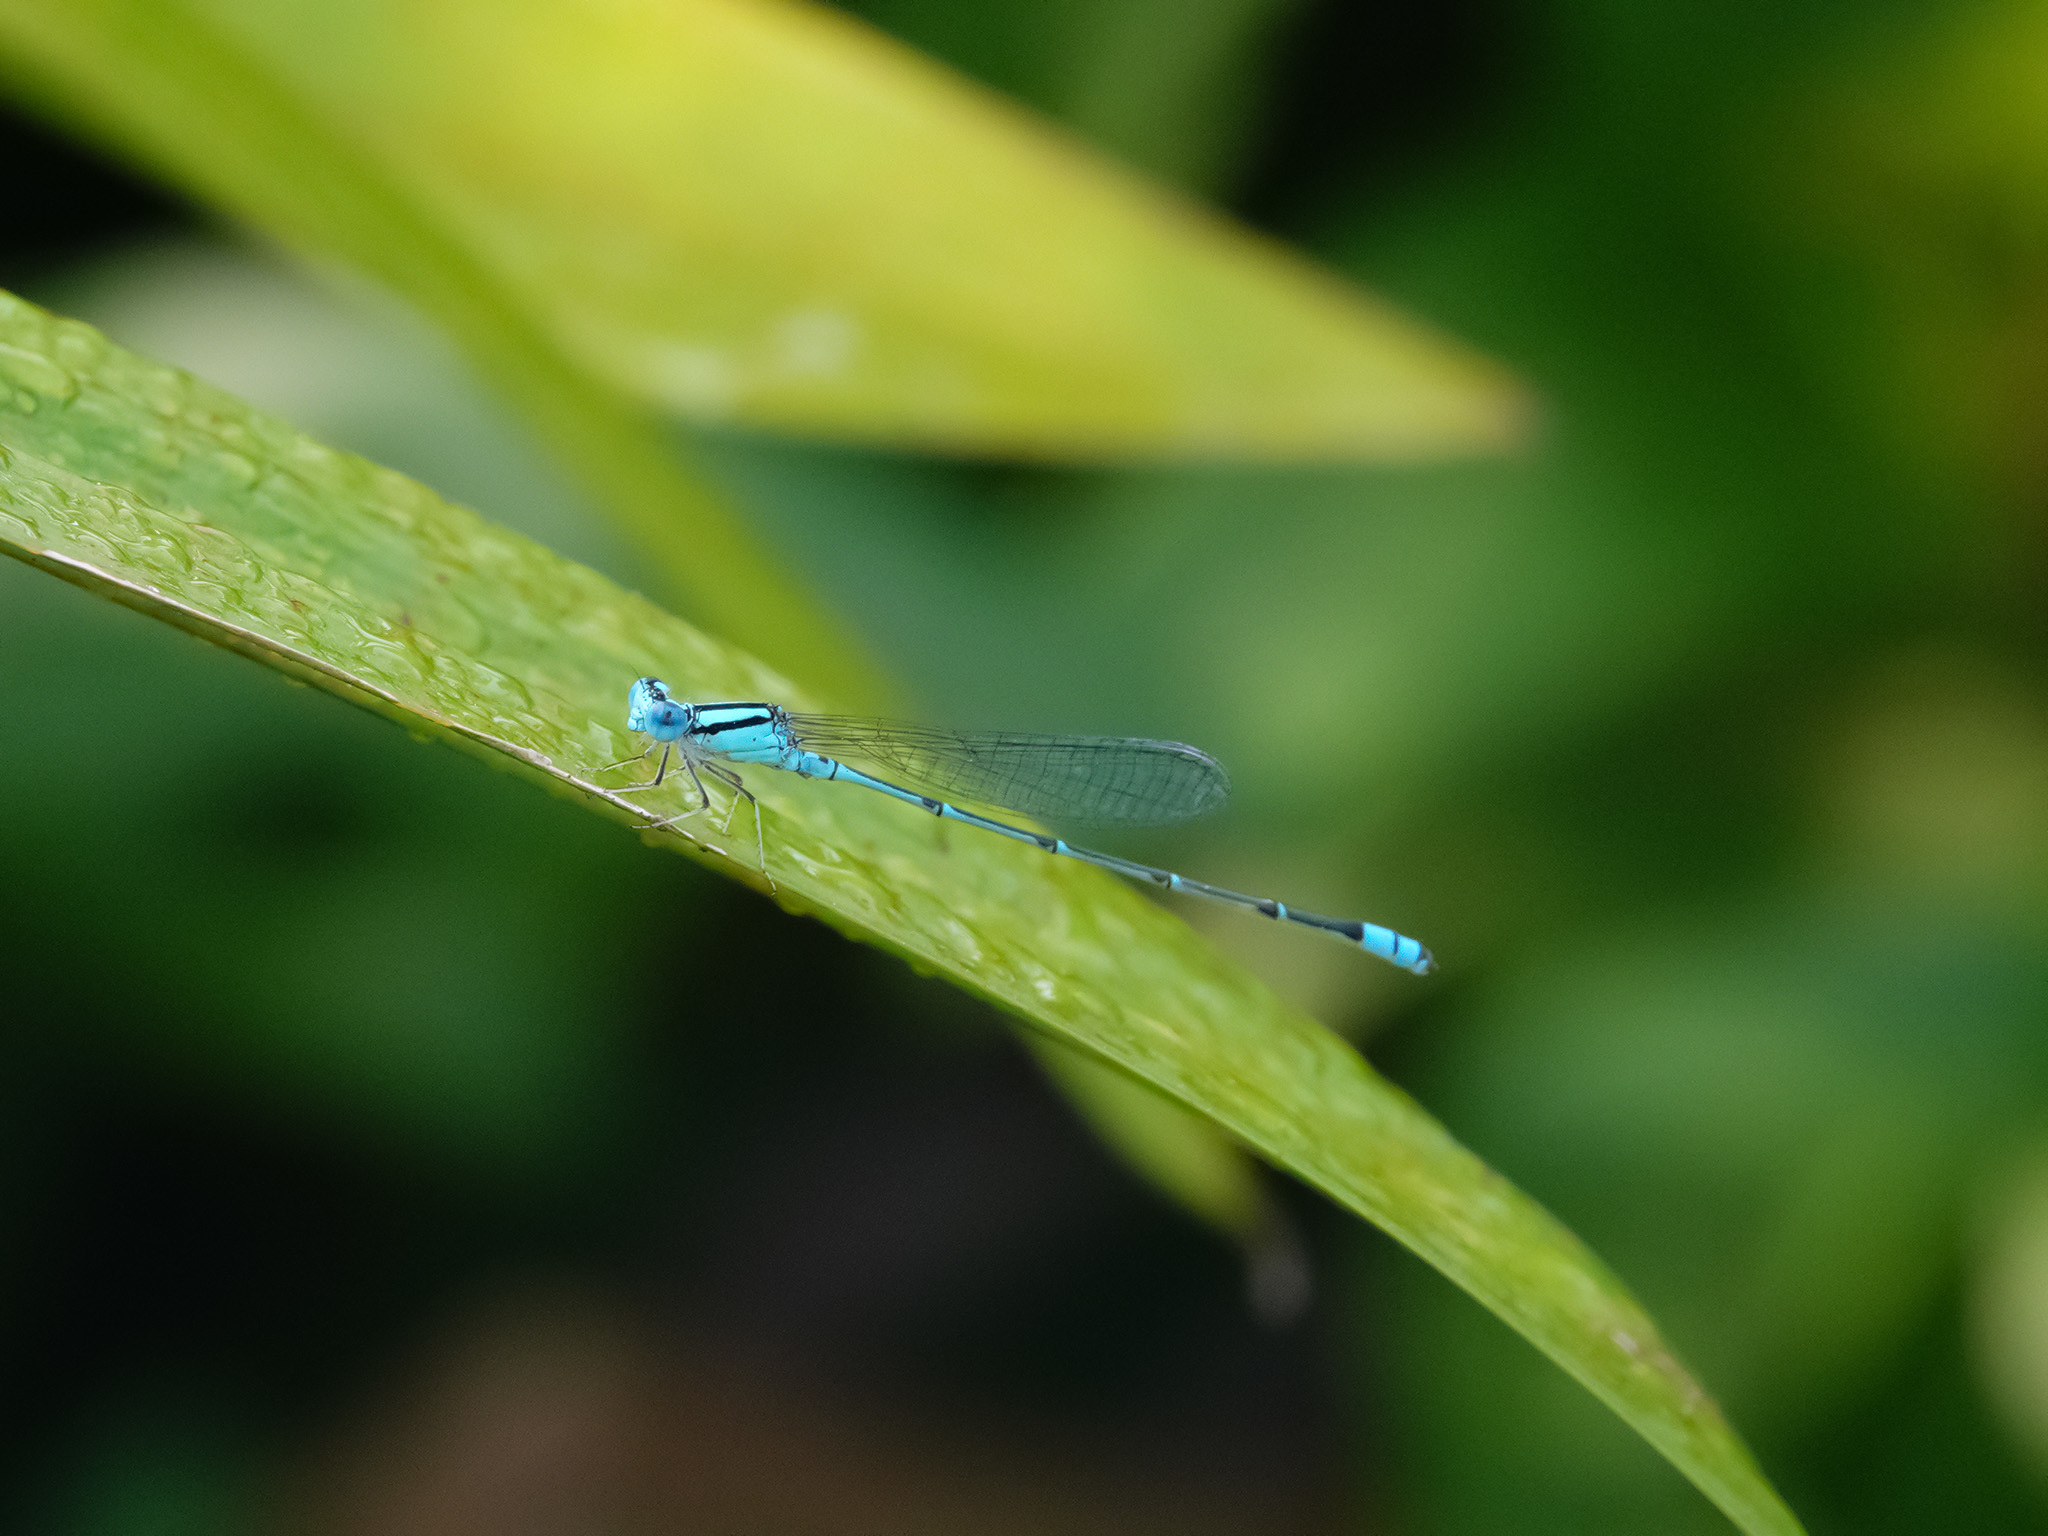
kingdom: Animalia
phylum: Arthropoda
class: Insecta
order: Odonata
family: Coenagrionidae
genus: Pseudagrion
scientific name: Pseudagrion microcephalum
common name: Blue riverdamsel
